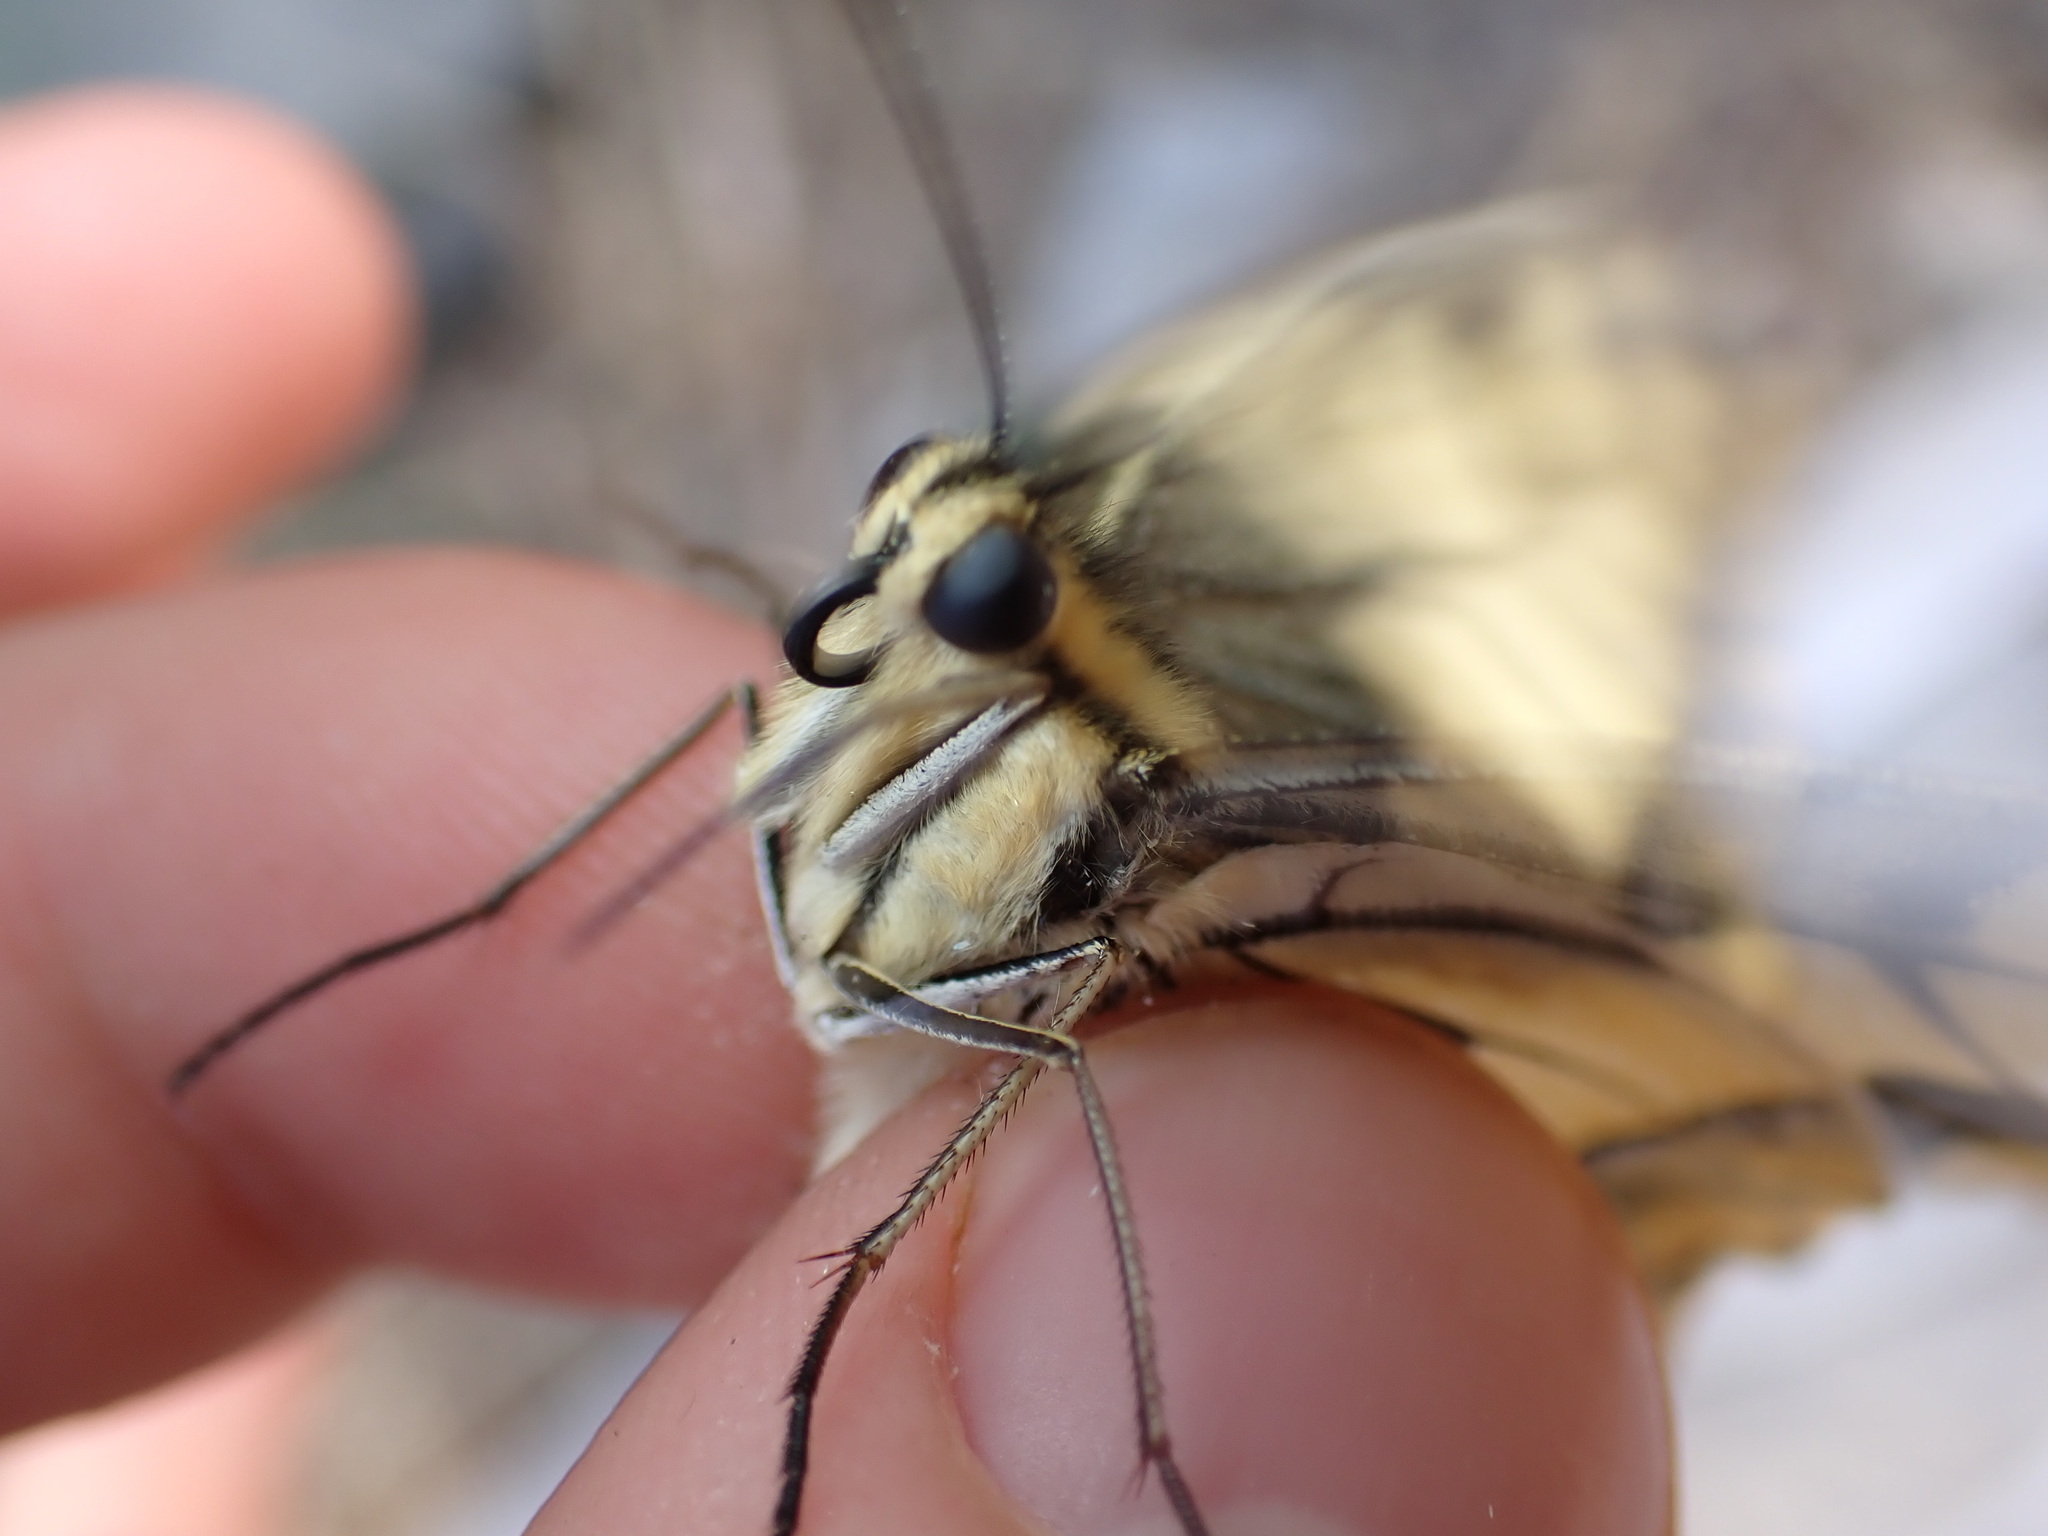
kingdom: Animalia
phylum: Arthropoda
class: Insecta
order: Lepidoptera
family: Papilionidae
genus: Papilio
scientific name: Papilio machaon
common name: Swallowtail
